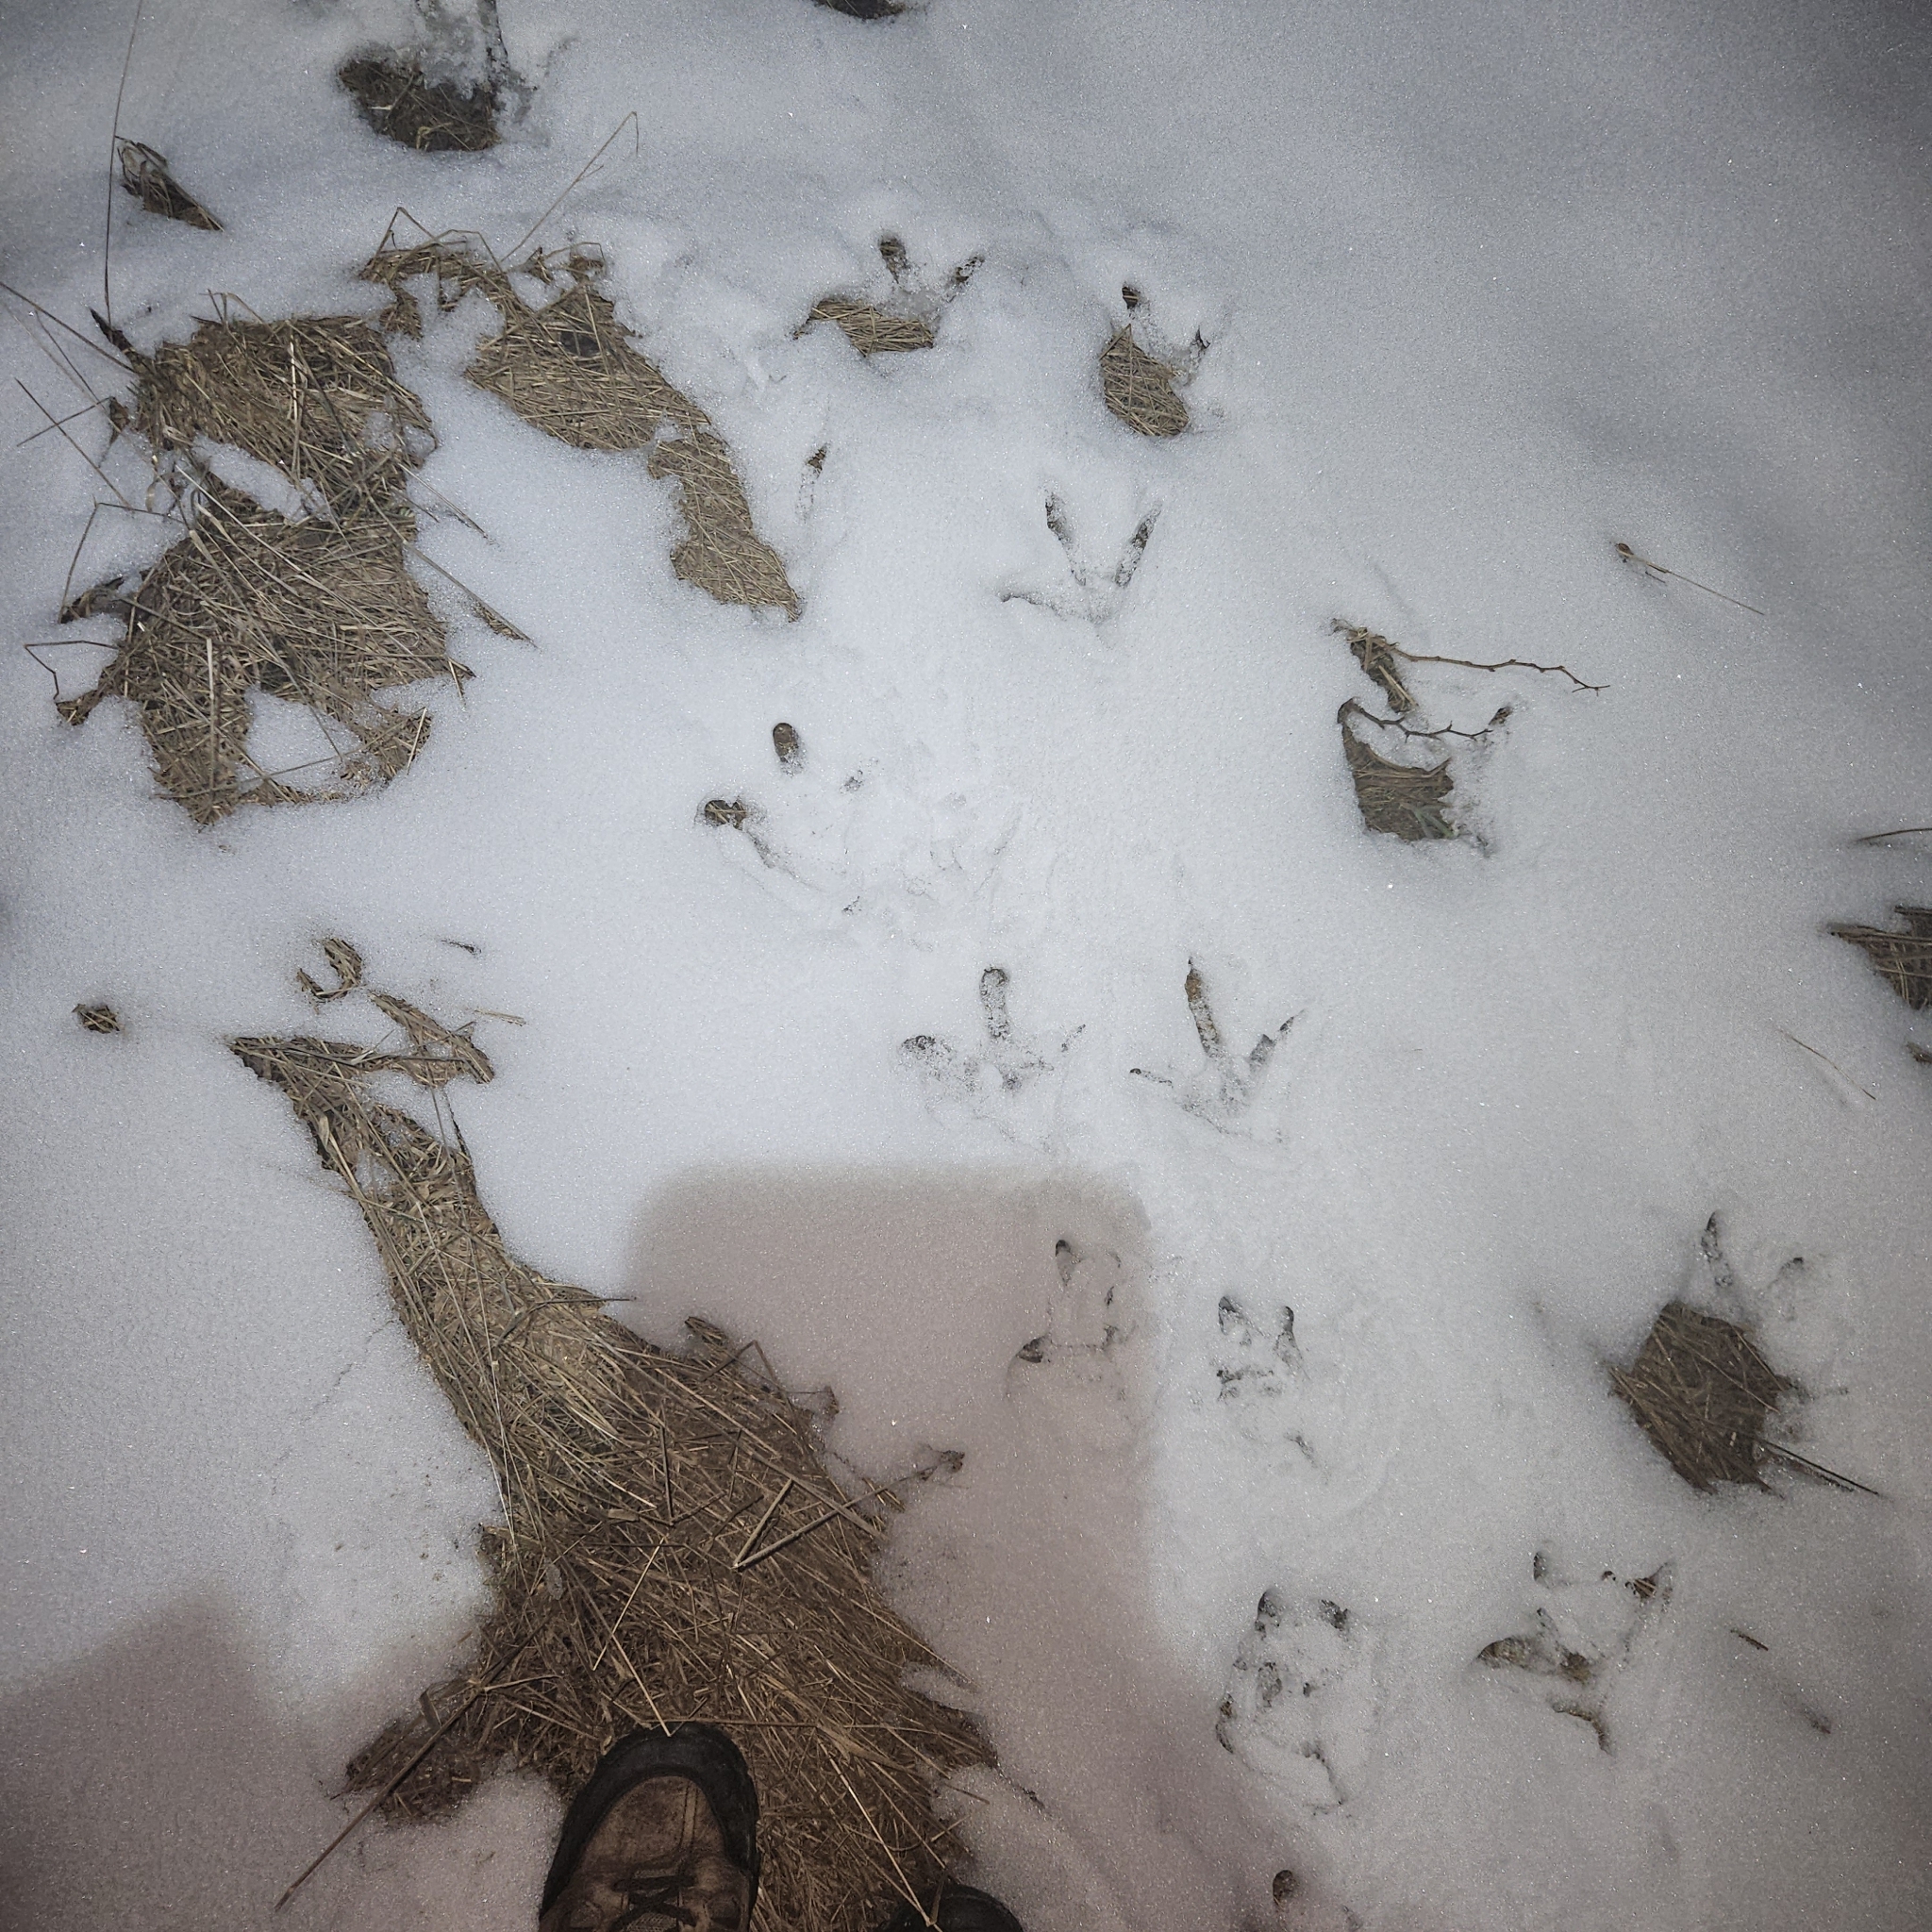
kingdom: Animalia
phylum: Chordata
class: Aves
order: Galliformes
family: Phasianidae
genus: Meleagris
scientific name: Meleagris gallopavo
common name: Wild turkey
